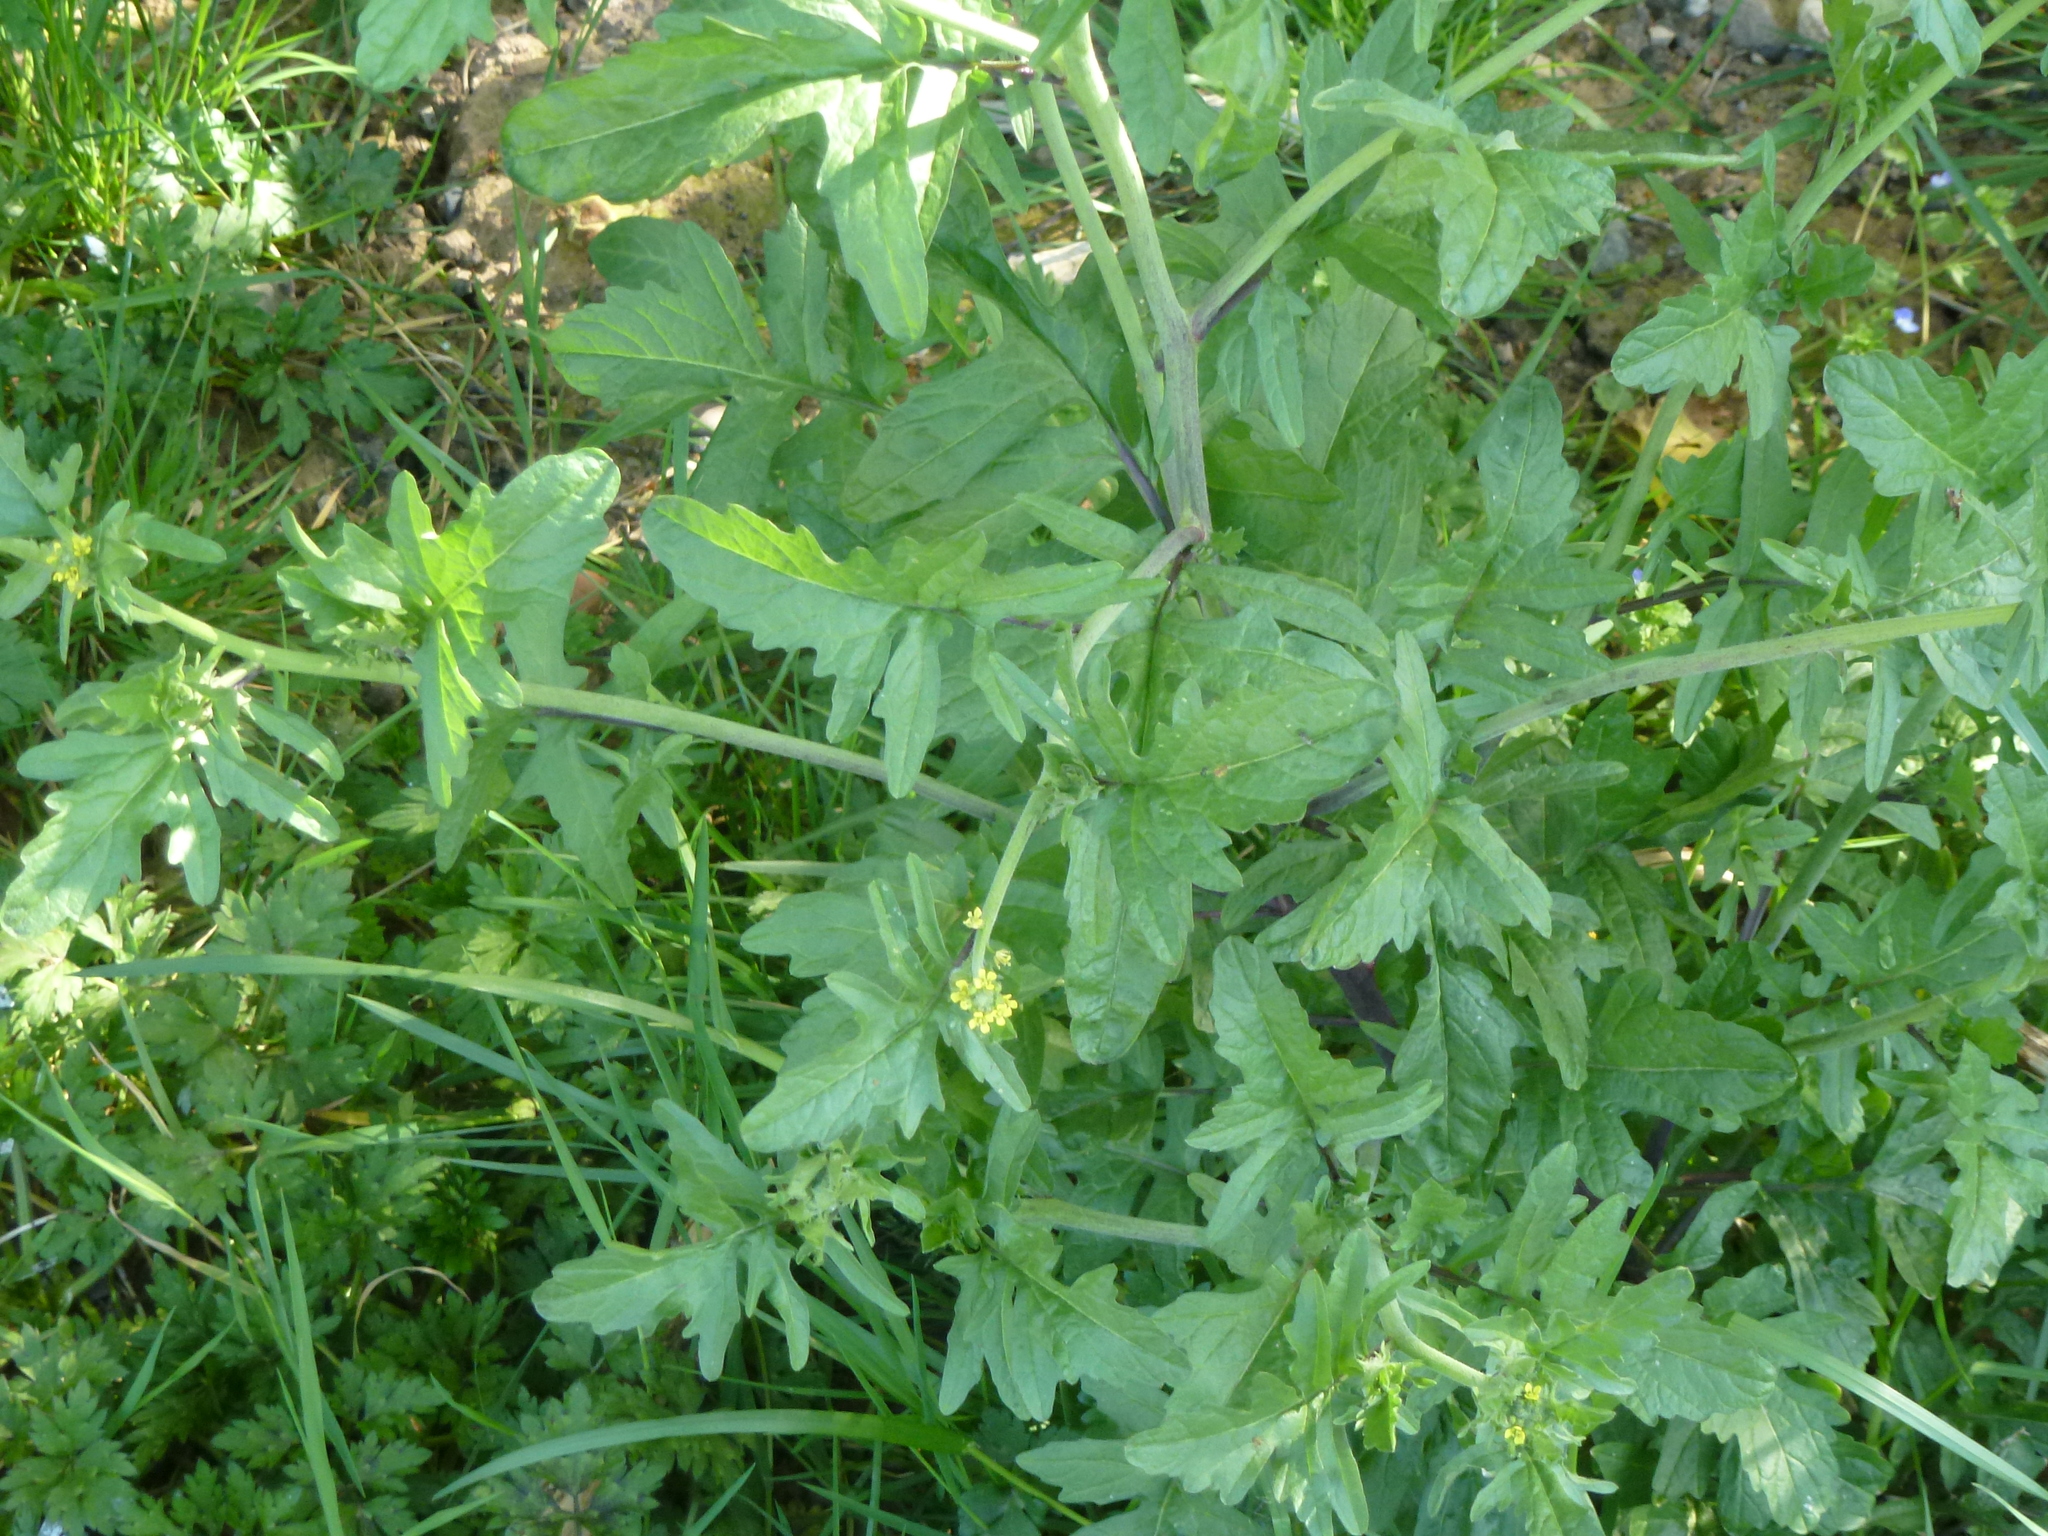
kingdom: Plantae
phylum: Tracheophyta
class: Magnoliopsida
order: Brassicales
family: Brassicaceae
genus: Sisymbrium
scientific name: Sisymbrium officinale
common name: Hedge mustard
